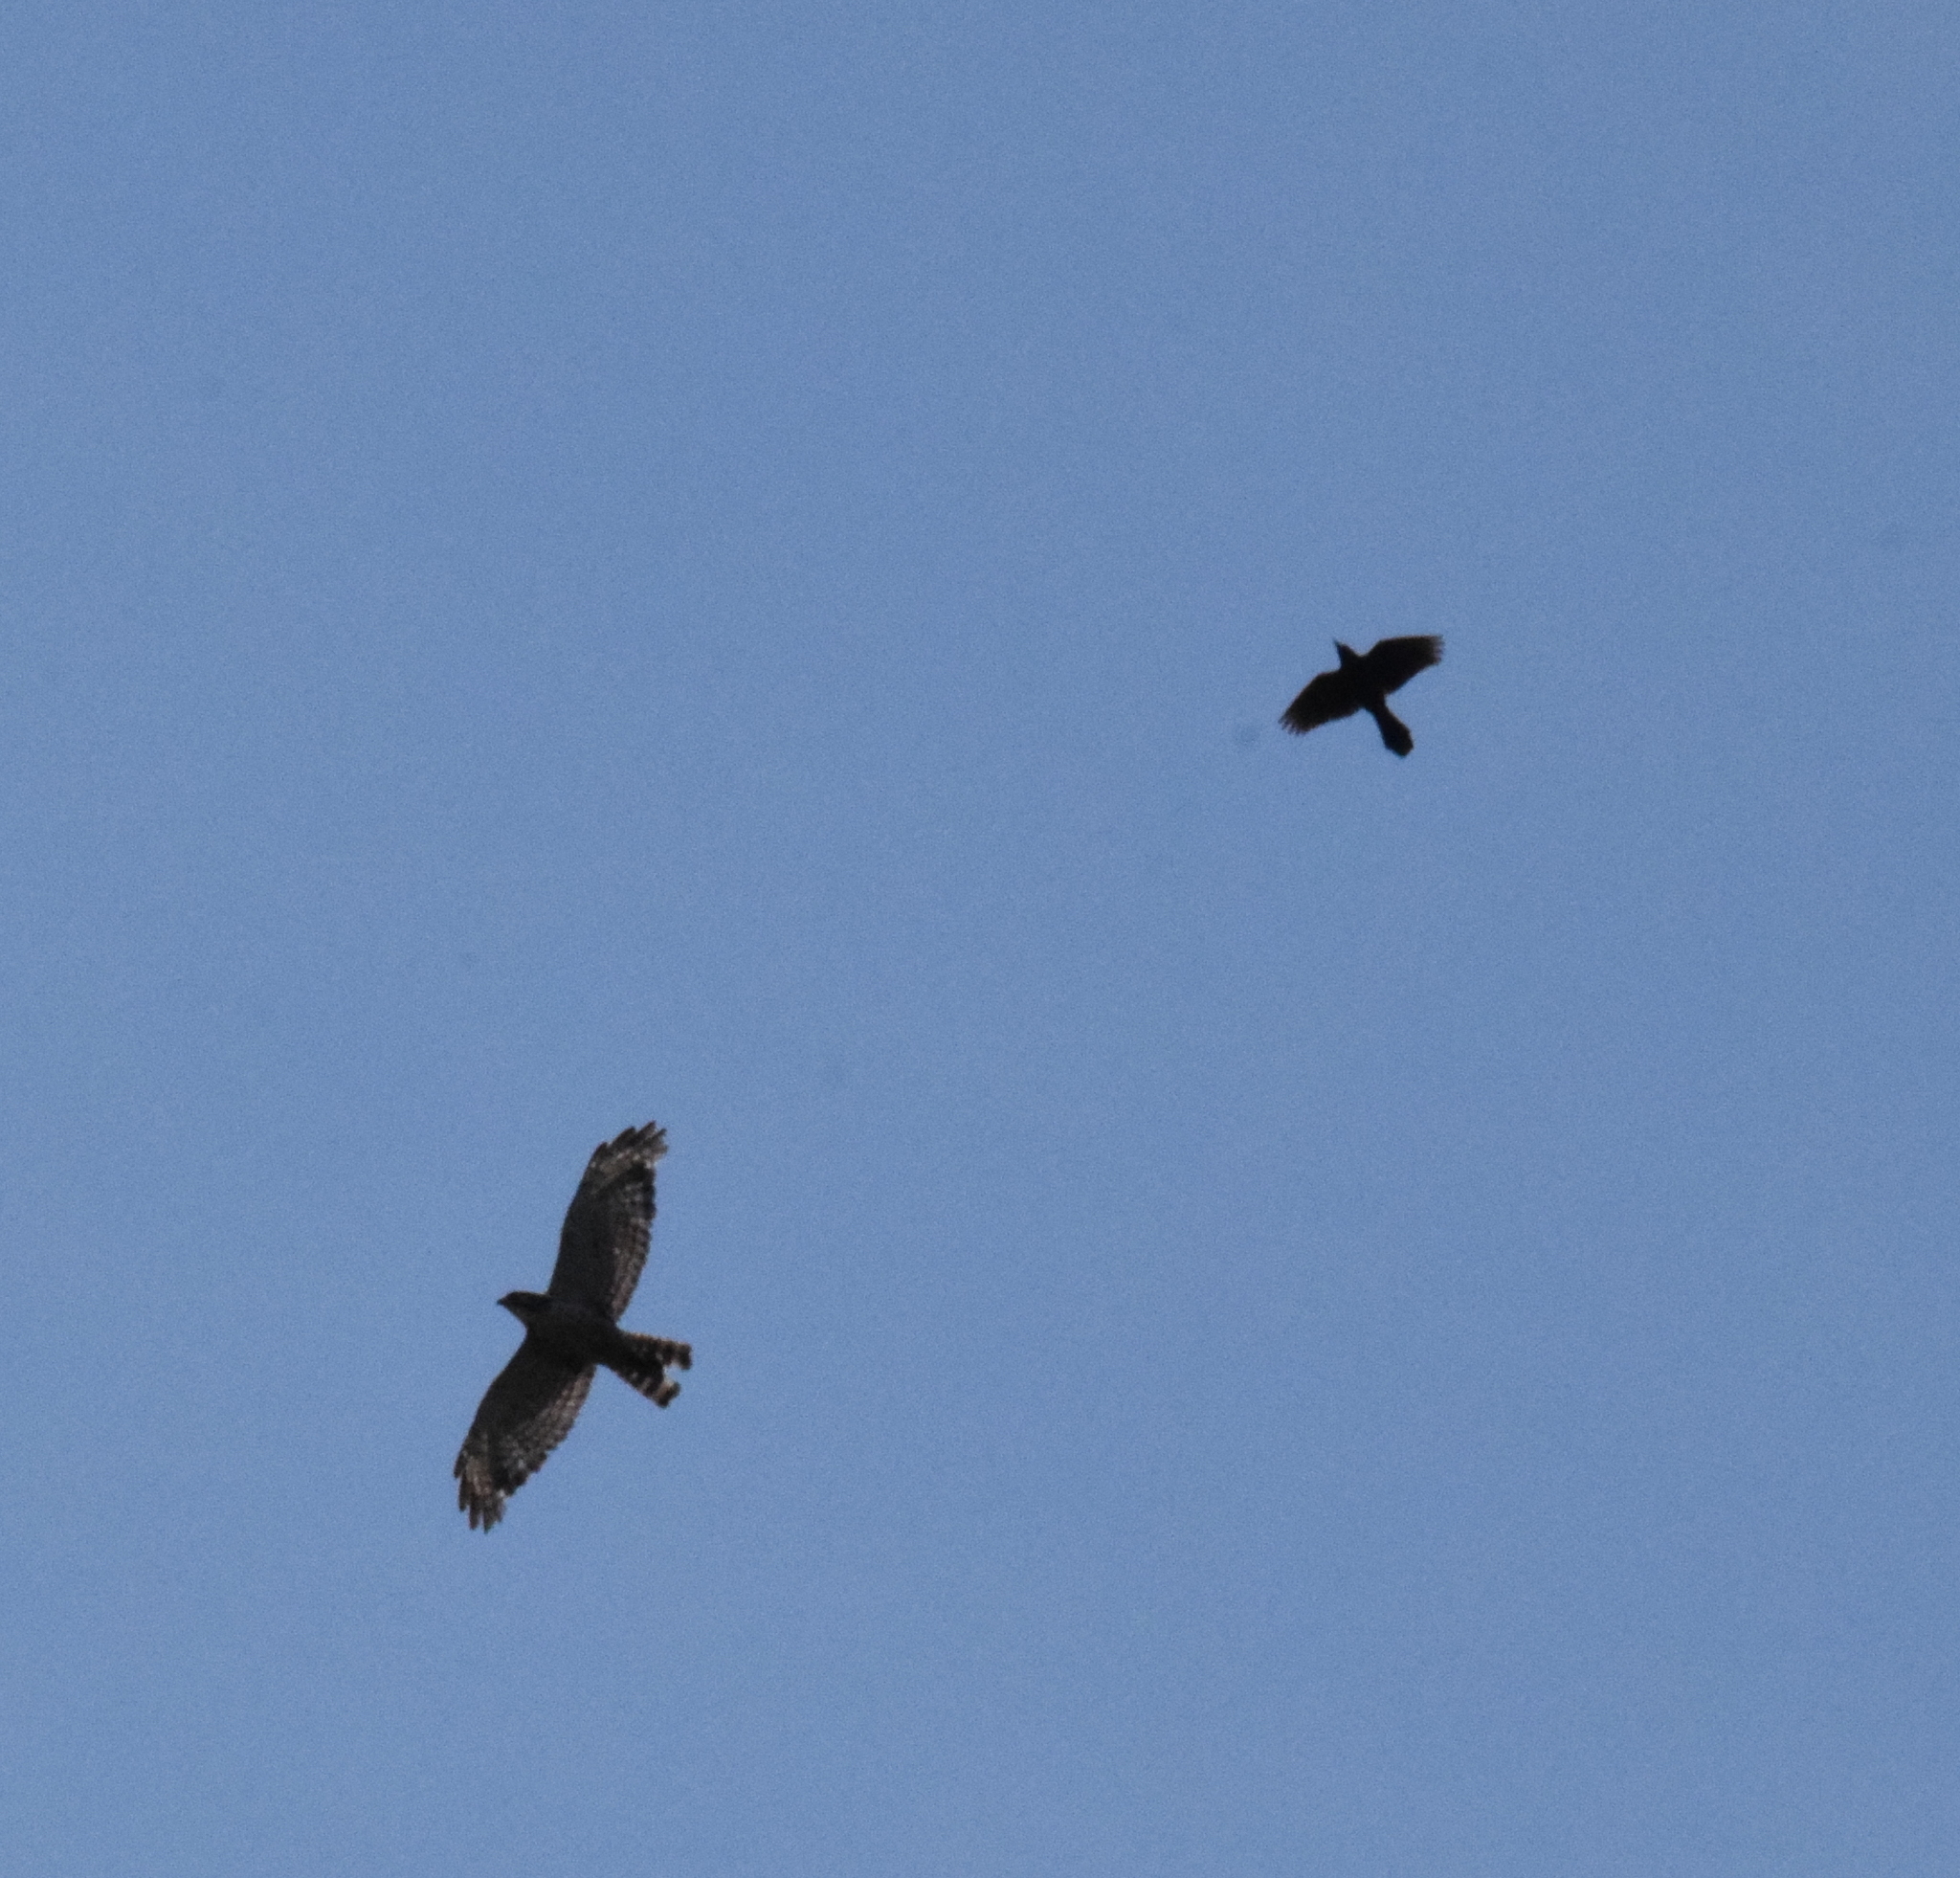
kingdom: Animalia
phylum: Chordata
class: Aves
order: Accipitriformes
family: Accipitridae
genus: Buteo
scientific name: Buteo platypterus
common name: Broad-winged hawk
